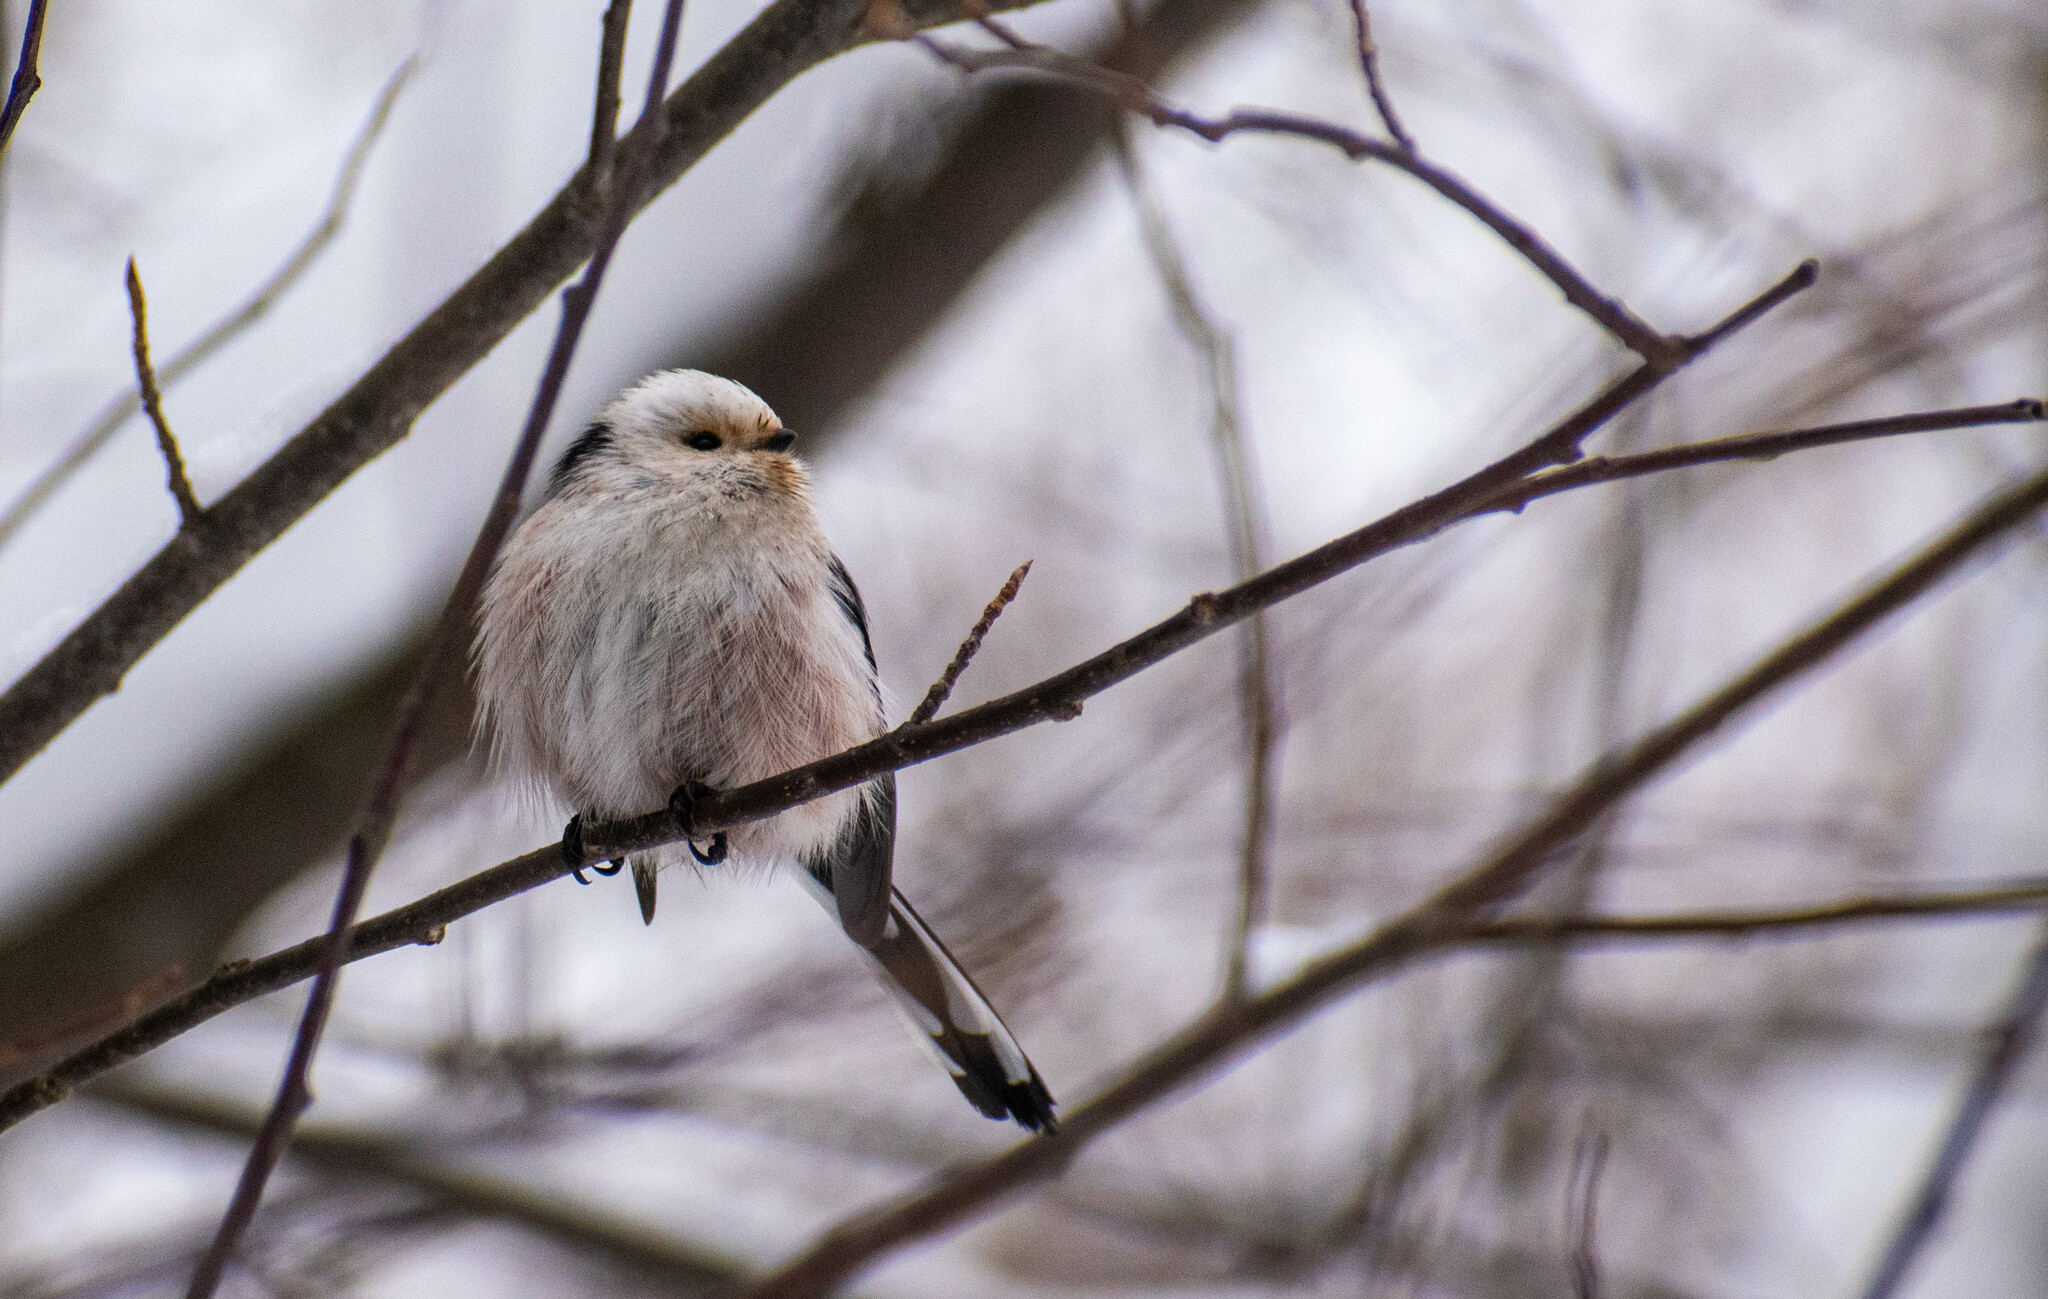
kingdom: Animalia
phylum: Chordata
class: Aves
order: Passeriformes
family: Aegithalidae
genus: Aegithalos
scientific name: Aegithalos caudatus
